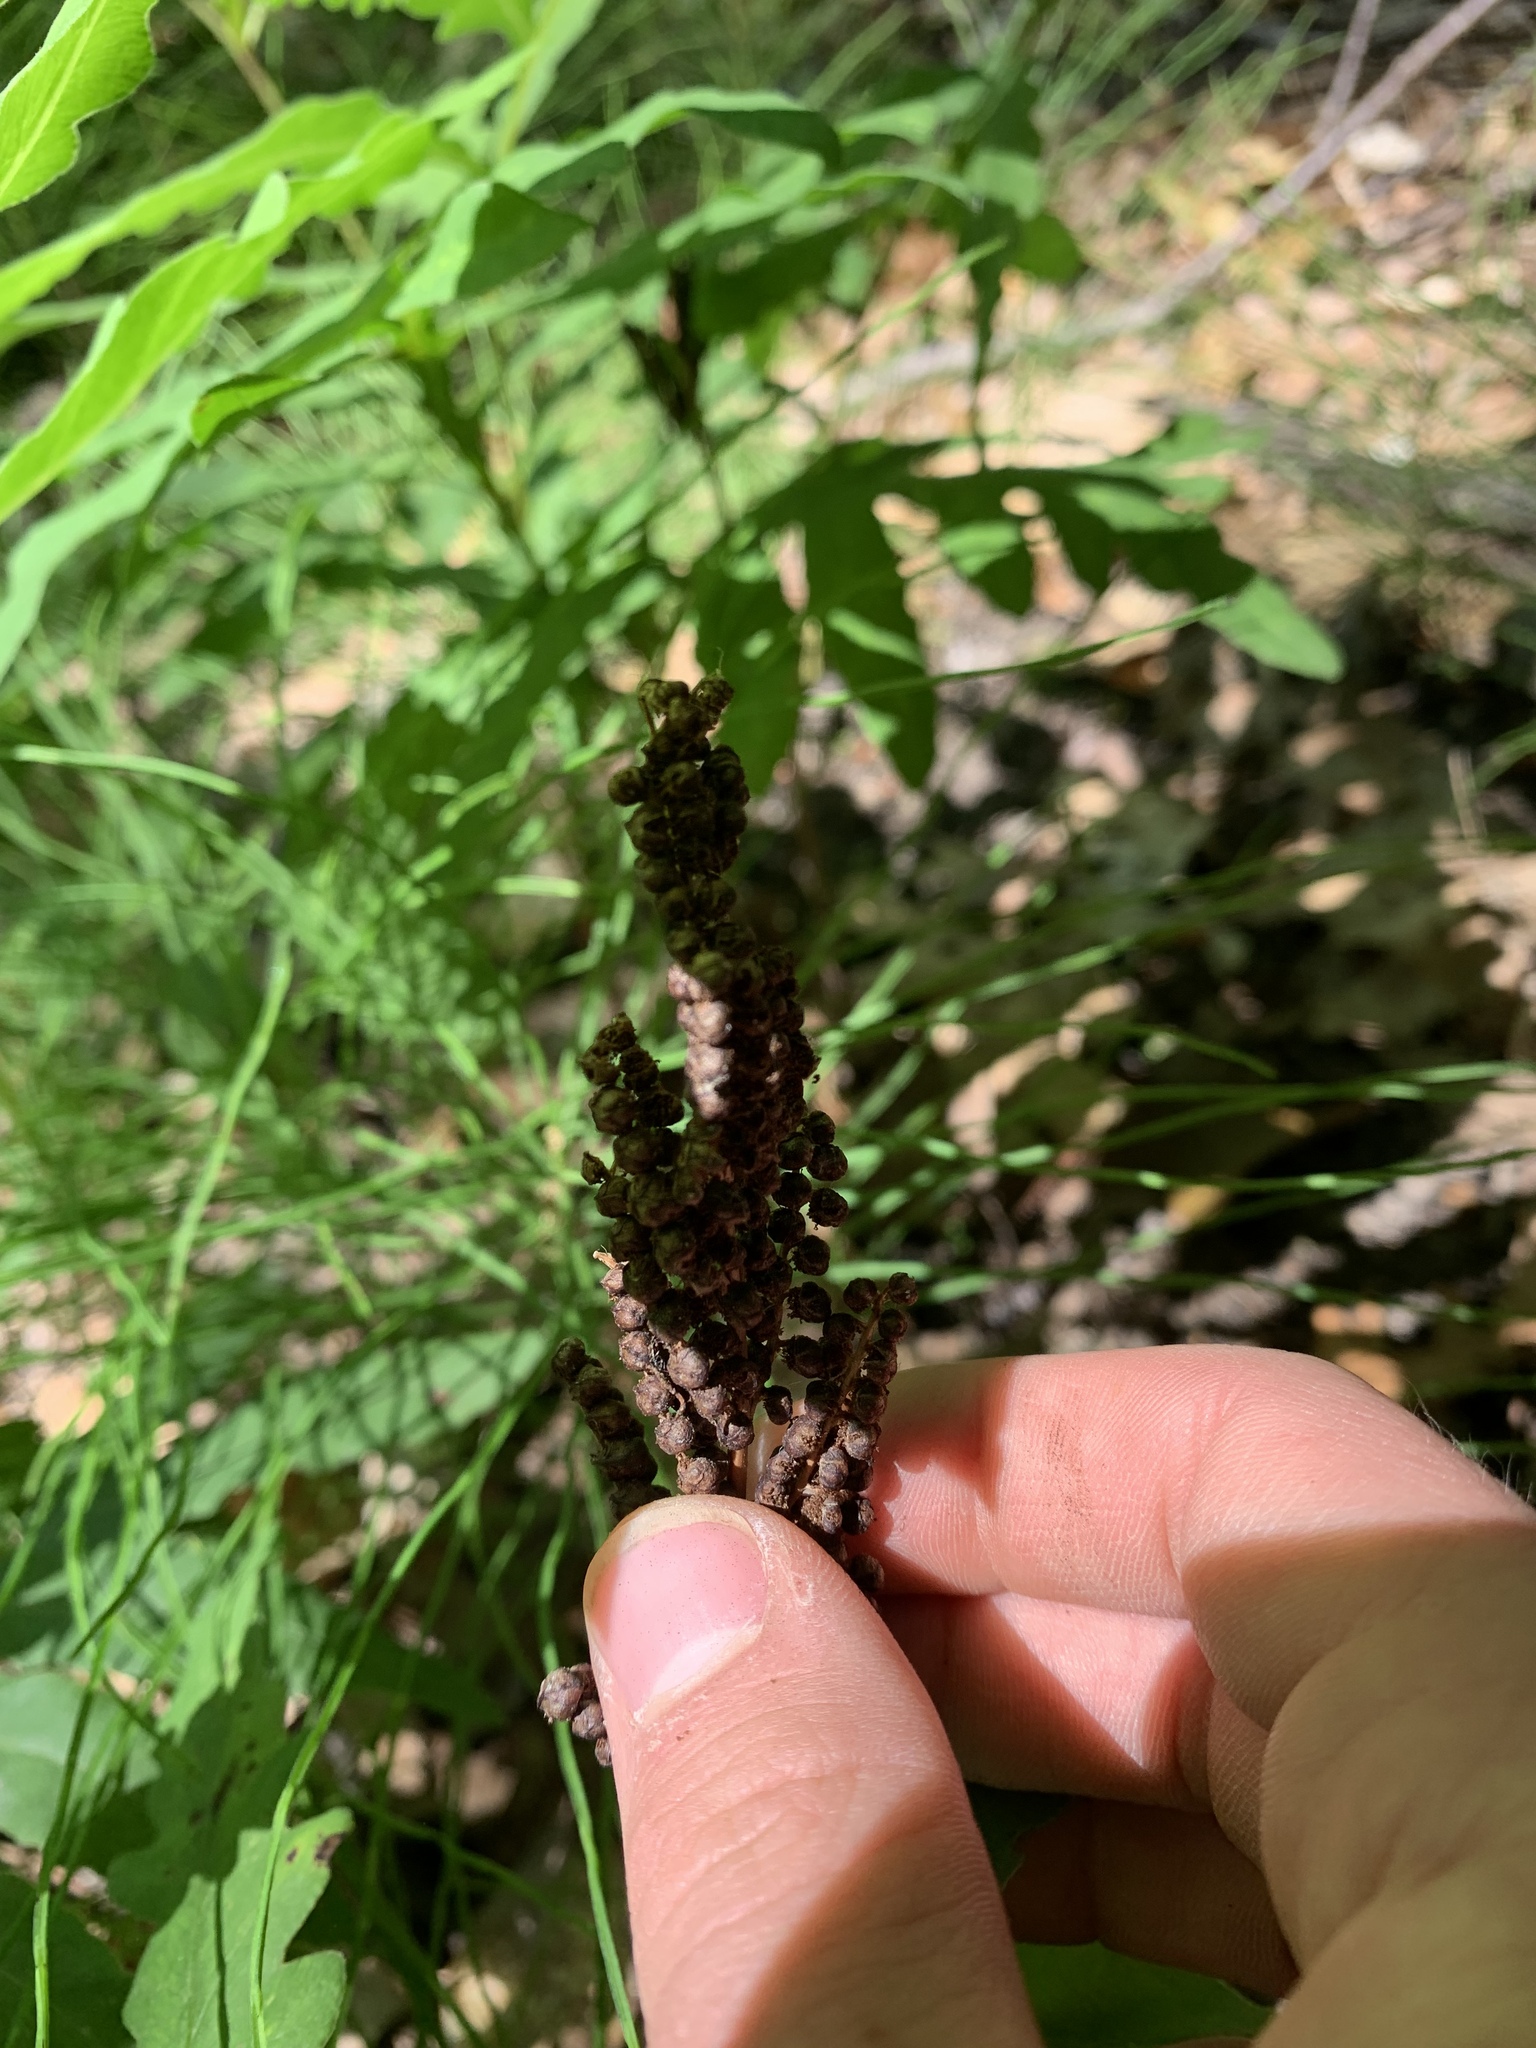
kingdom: Plantae
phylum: Tracheophyta
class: Polypodiopsida
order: Polypodiales
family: Onocleaceae
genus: Onoclea
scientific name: Onoclea sensibilis
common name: Sensitive fern
